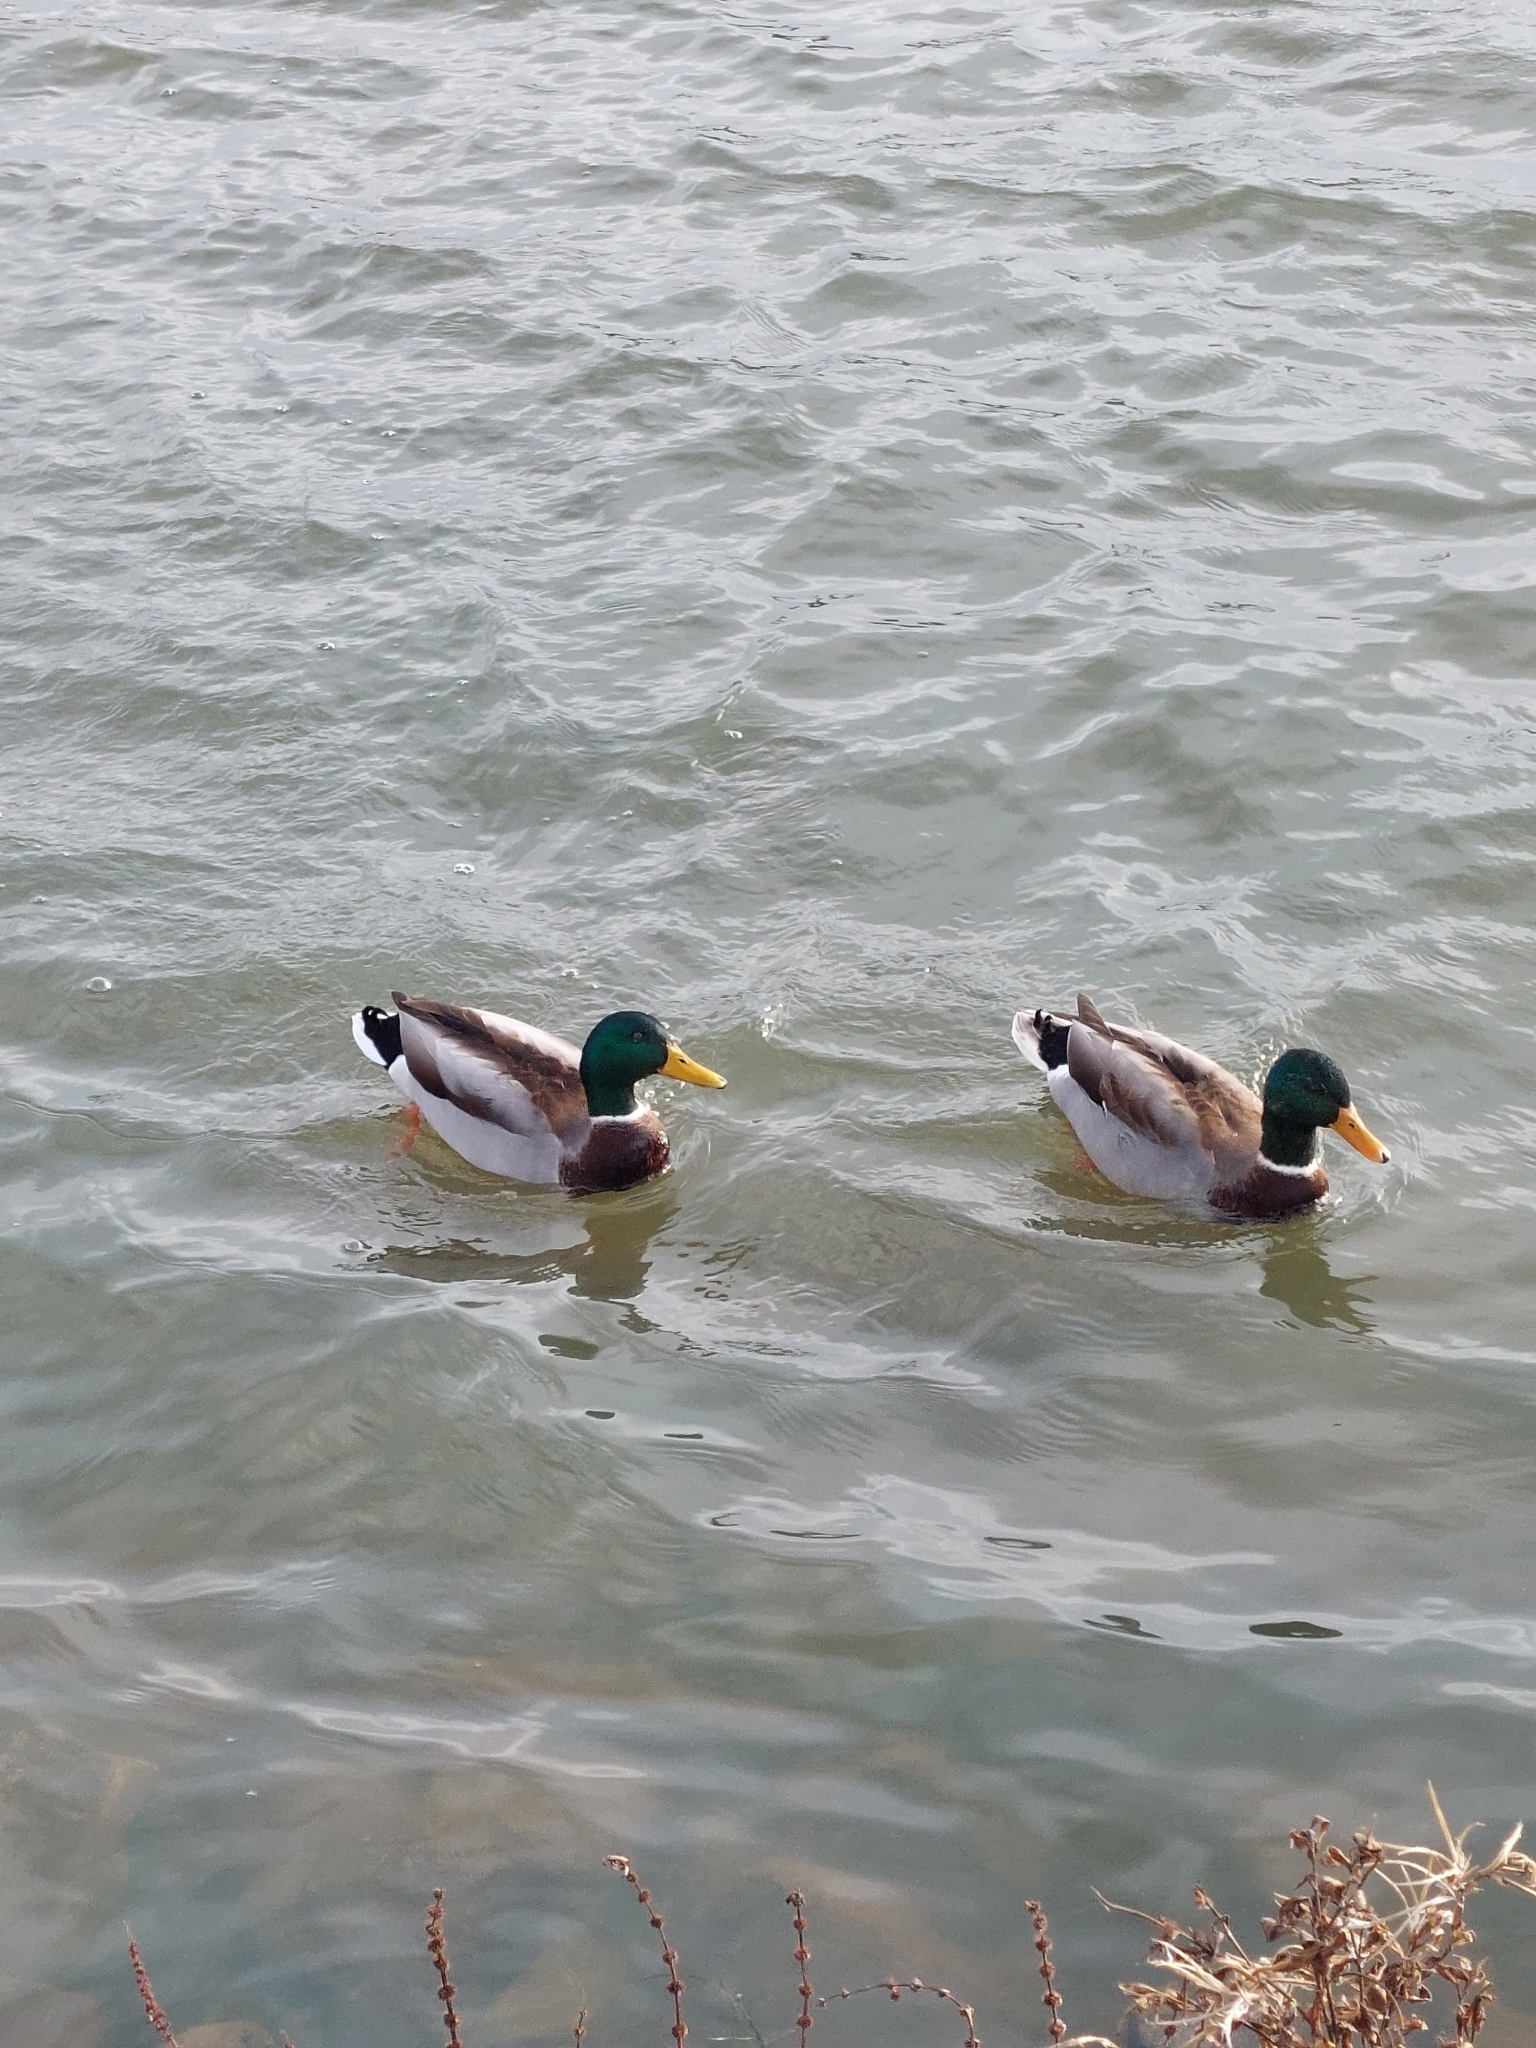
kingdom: Animalia
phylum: Chordata
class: Aves
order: Anseriformes
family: Anatidae
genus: Anas
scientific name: Anas platyrhynchos
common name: Mallard
